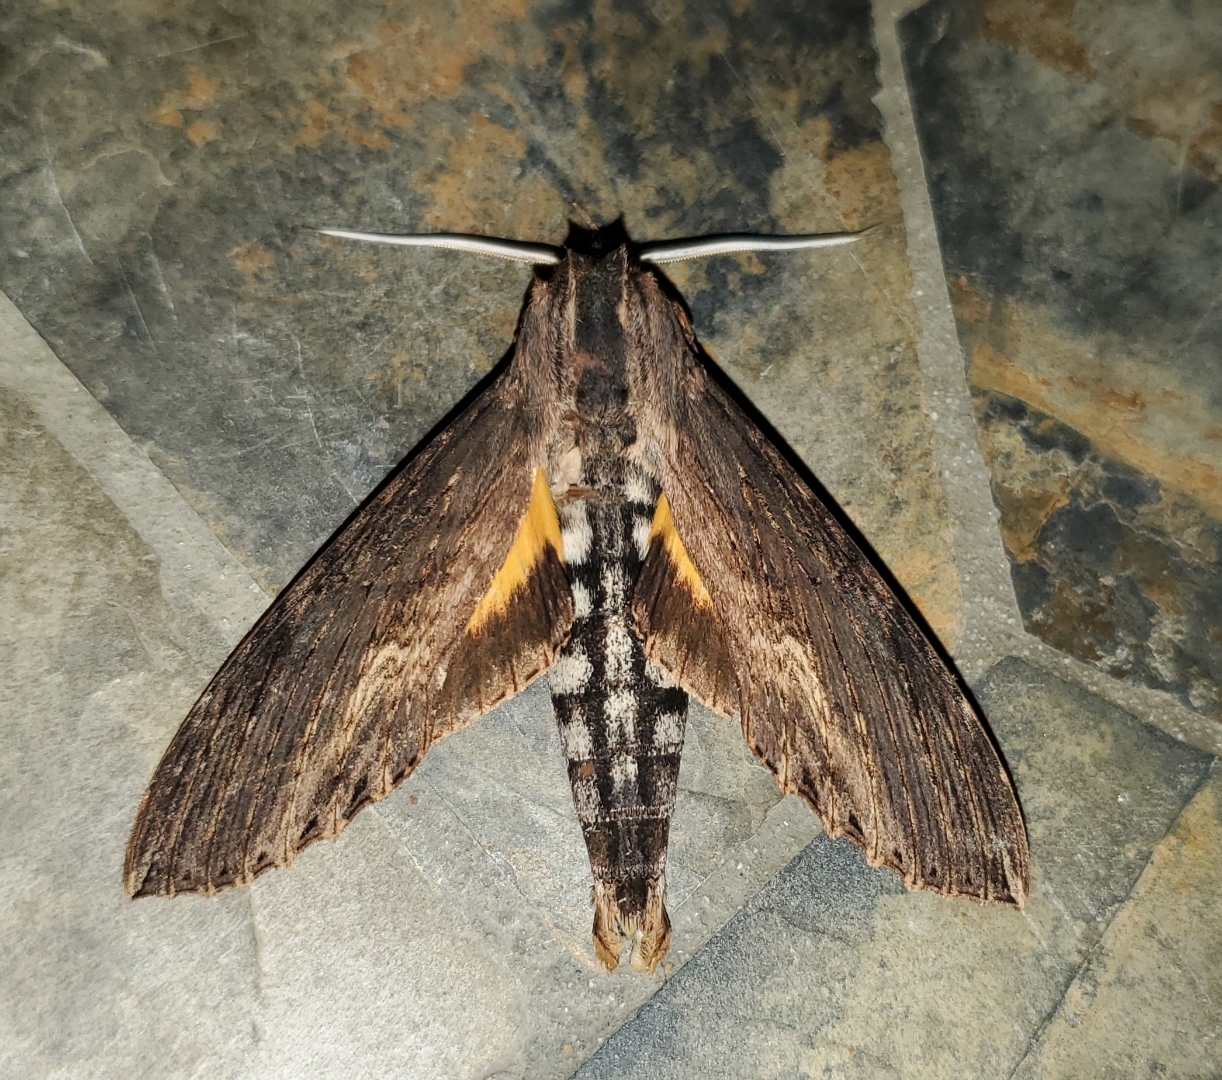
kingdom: Animalia
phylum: Arthropoda
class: Insecta
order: Lepidoptera
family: Sphingidae
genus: Erinnyis
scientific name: Erinnyis alope
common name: Alope sphinx
